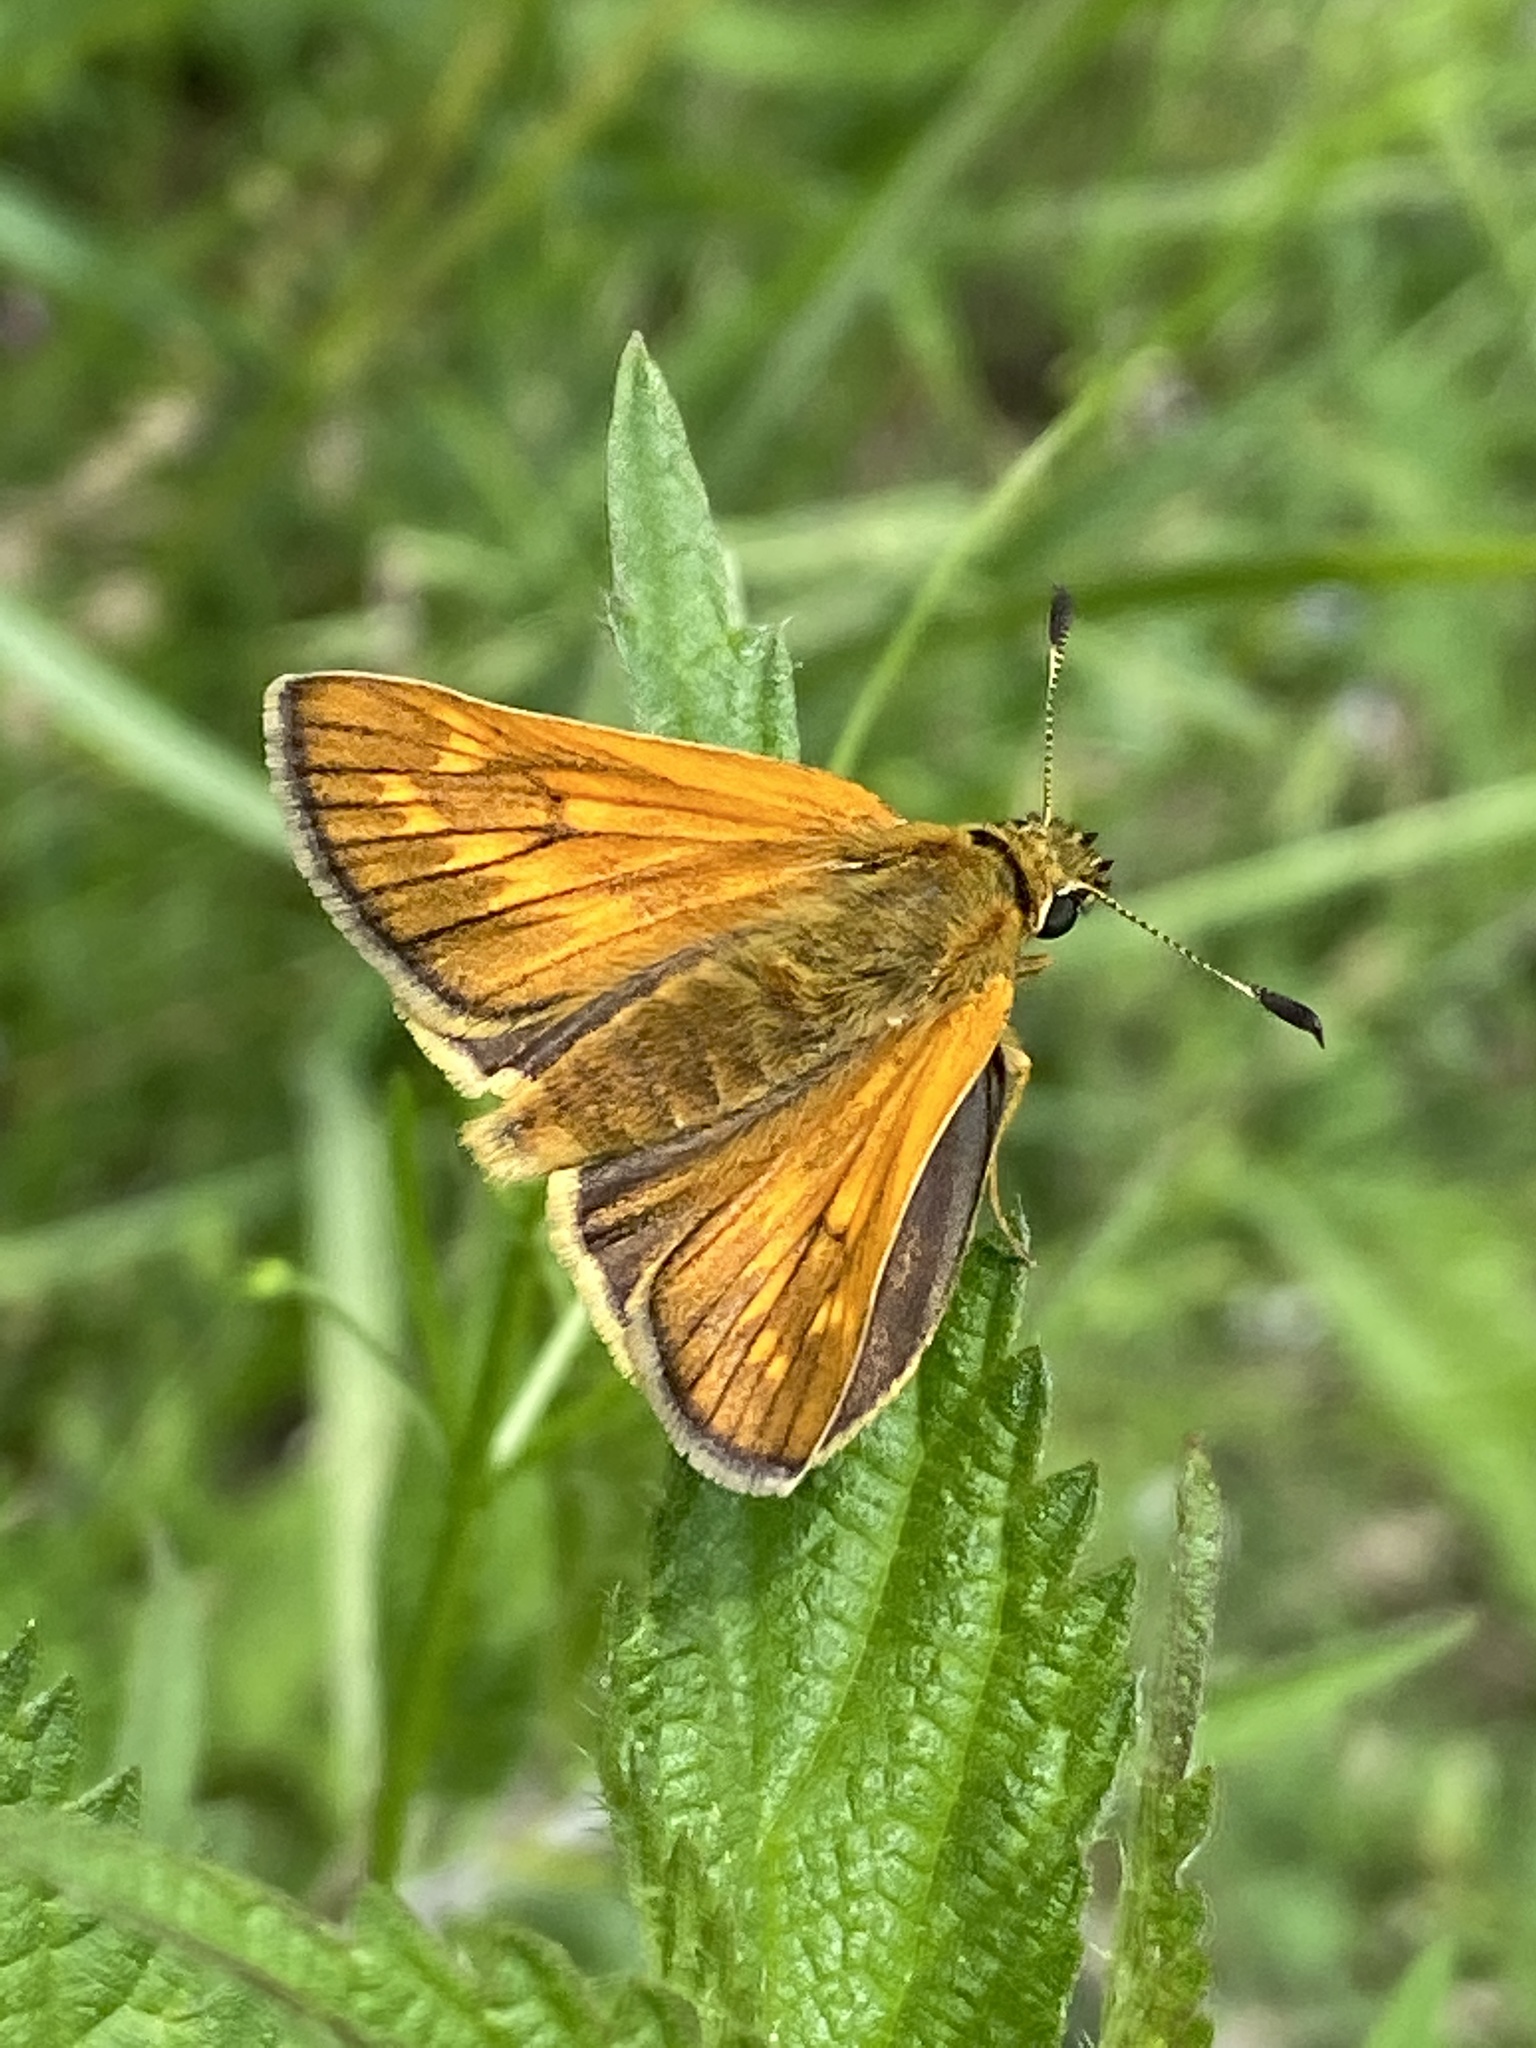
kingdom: Animalia
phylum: Arthropoda
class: Insecta
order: Lepidoptera
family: Hesperiidae
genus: Ochlodes
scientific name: Ochlodes venata
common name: Large skipper
